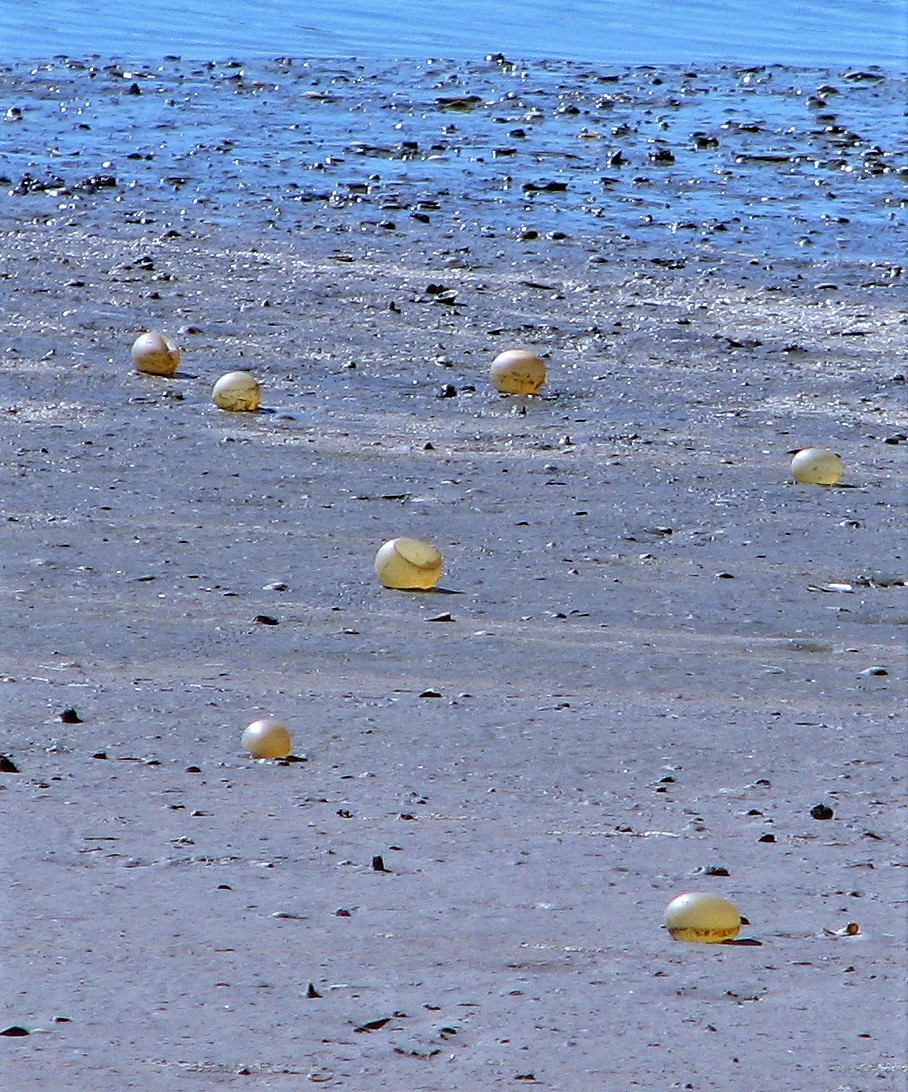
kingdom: Animalia
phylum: Mollusca
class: Gastropoda
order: Neogastropoda
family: Volutidae
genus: Pachycymbiola
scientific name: Pachycymbiola brasiliana
